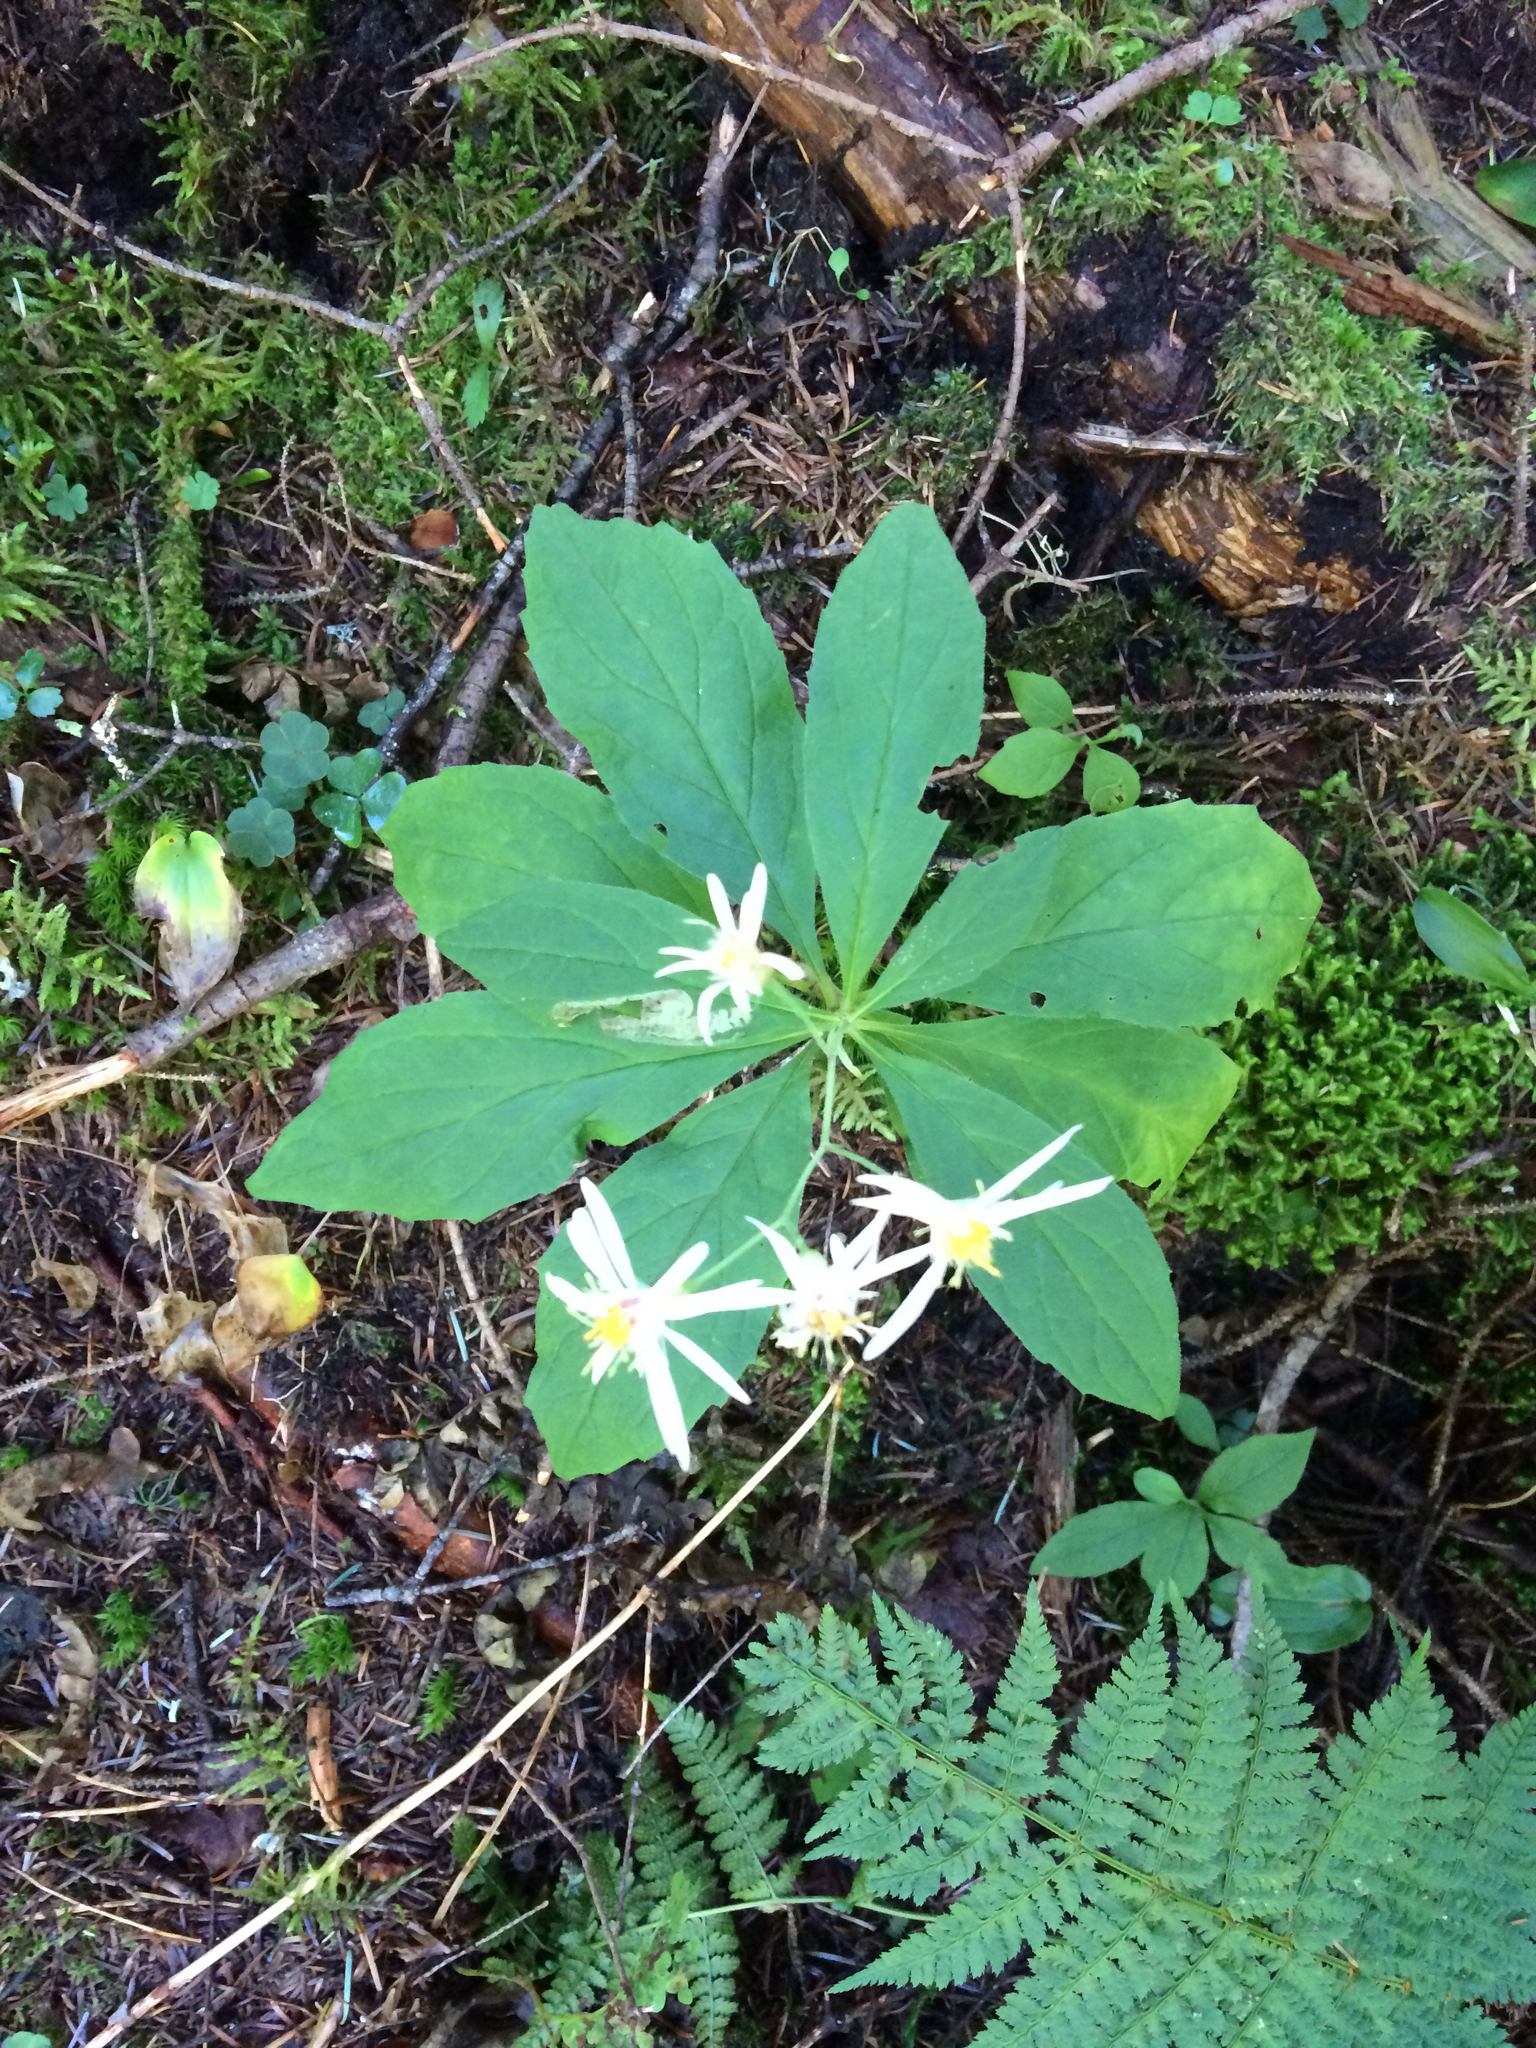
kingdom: Plantae
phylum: Tracheophyta
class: Magnoliopsida
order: Asterales
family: Asteraceae
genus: Oclemena
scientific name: Oclemena acuminata
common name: Mountain aster
